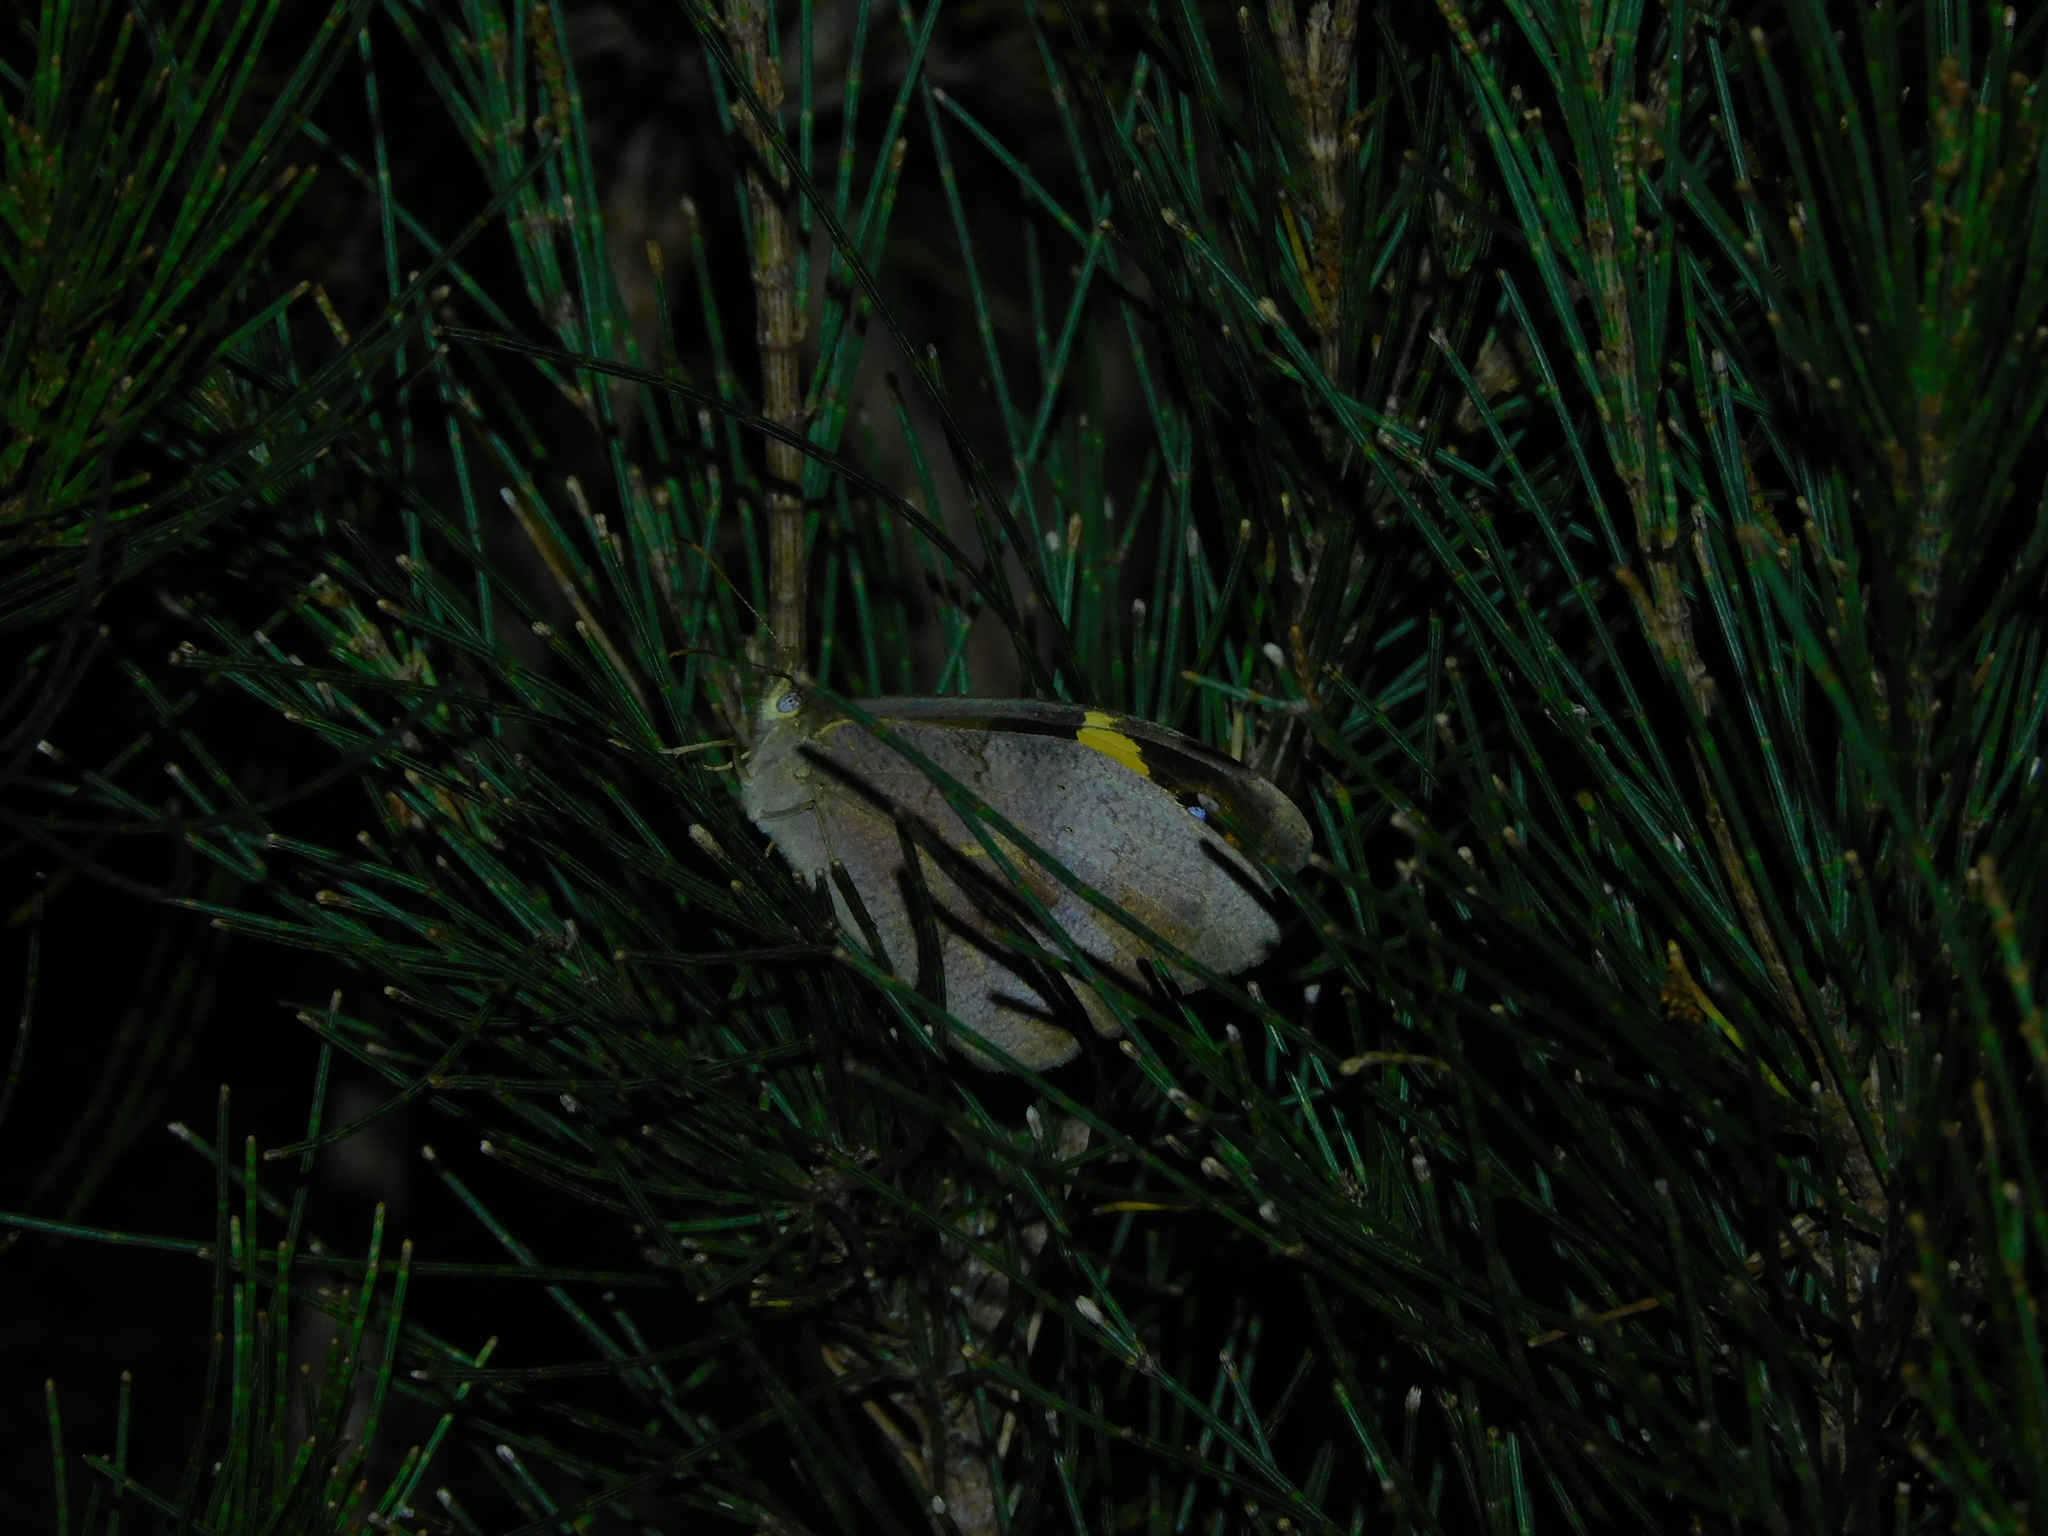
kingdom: Animalia
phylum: Arthropoda
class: Insecta
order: Lepidoptera
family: Nymphalidae
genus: Heteronympha
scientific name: Heteronympha merope
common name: Common brown
